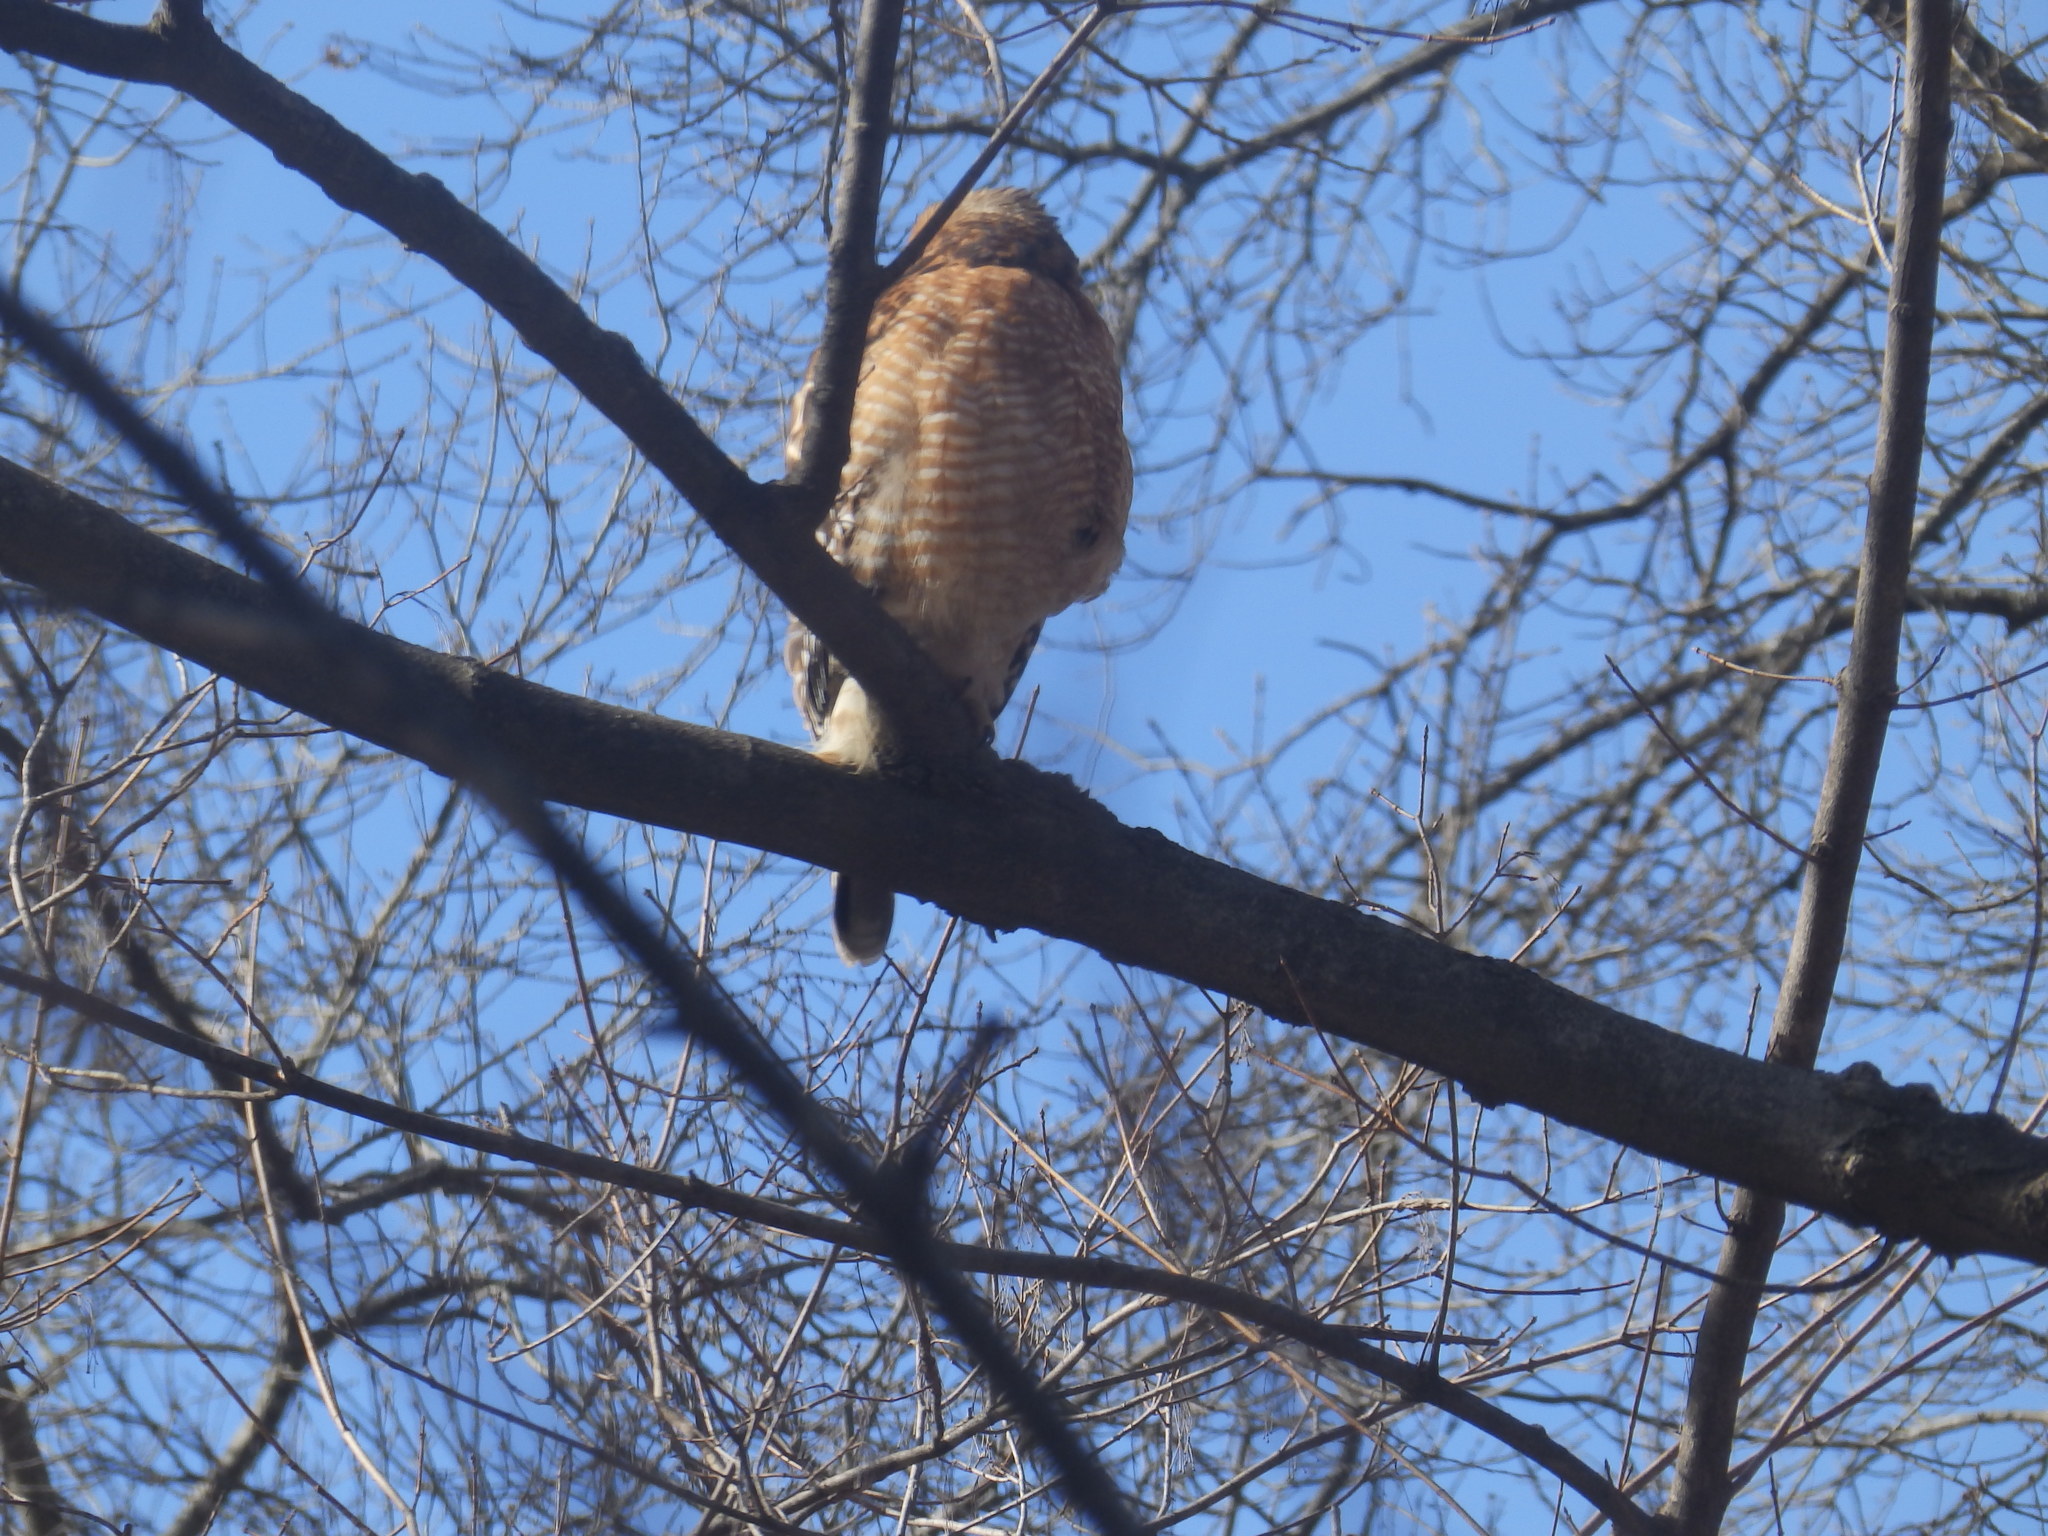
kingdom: Animalia
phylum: Chordata
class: Aves
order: Accipitriformes
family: Accipitridae
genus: Buteo
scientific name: Buteo lineatus
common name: Red-shouldered hawk
